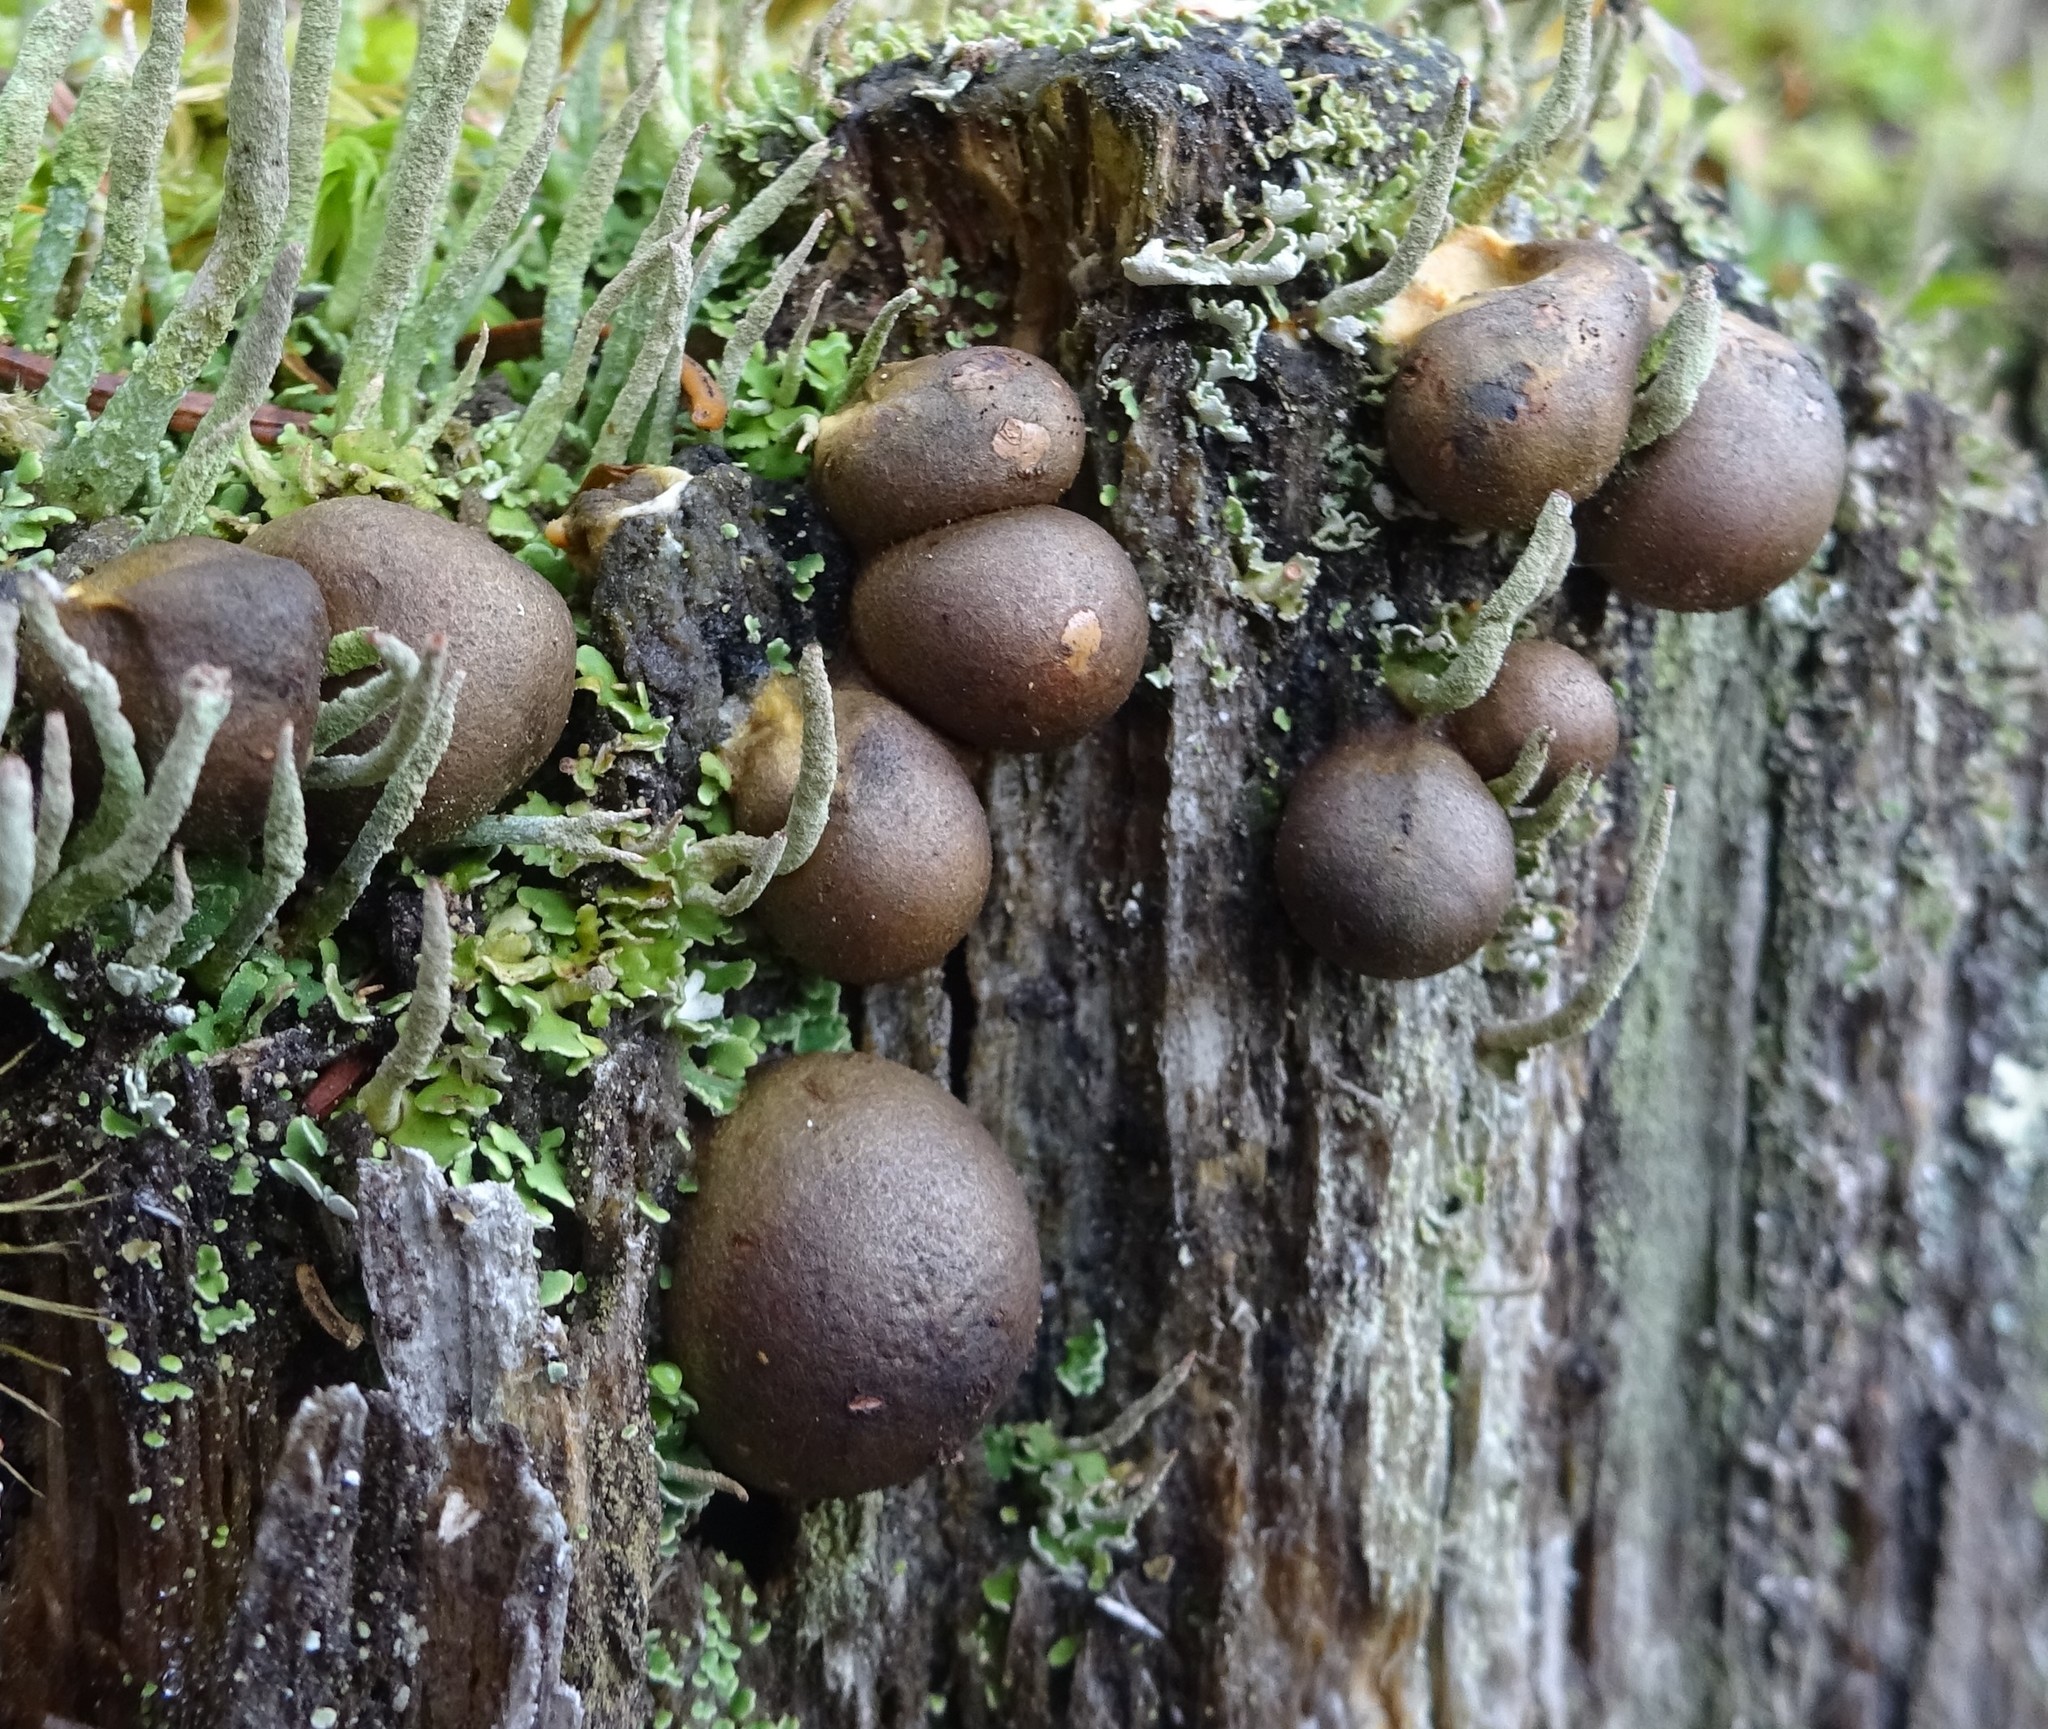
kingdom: Protozoa
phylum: Mycetozoa
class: Myxomycetes
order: Cribrariales
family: Tubiferaceae
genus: Lycogala
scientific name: Lycogala epidendrum
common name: Wolf's milk
